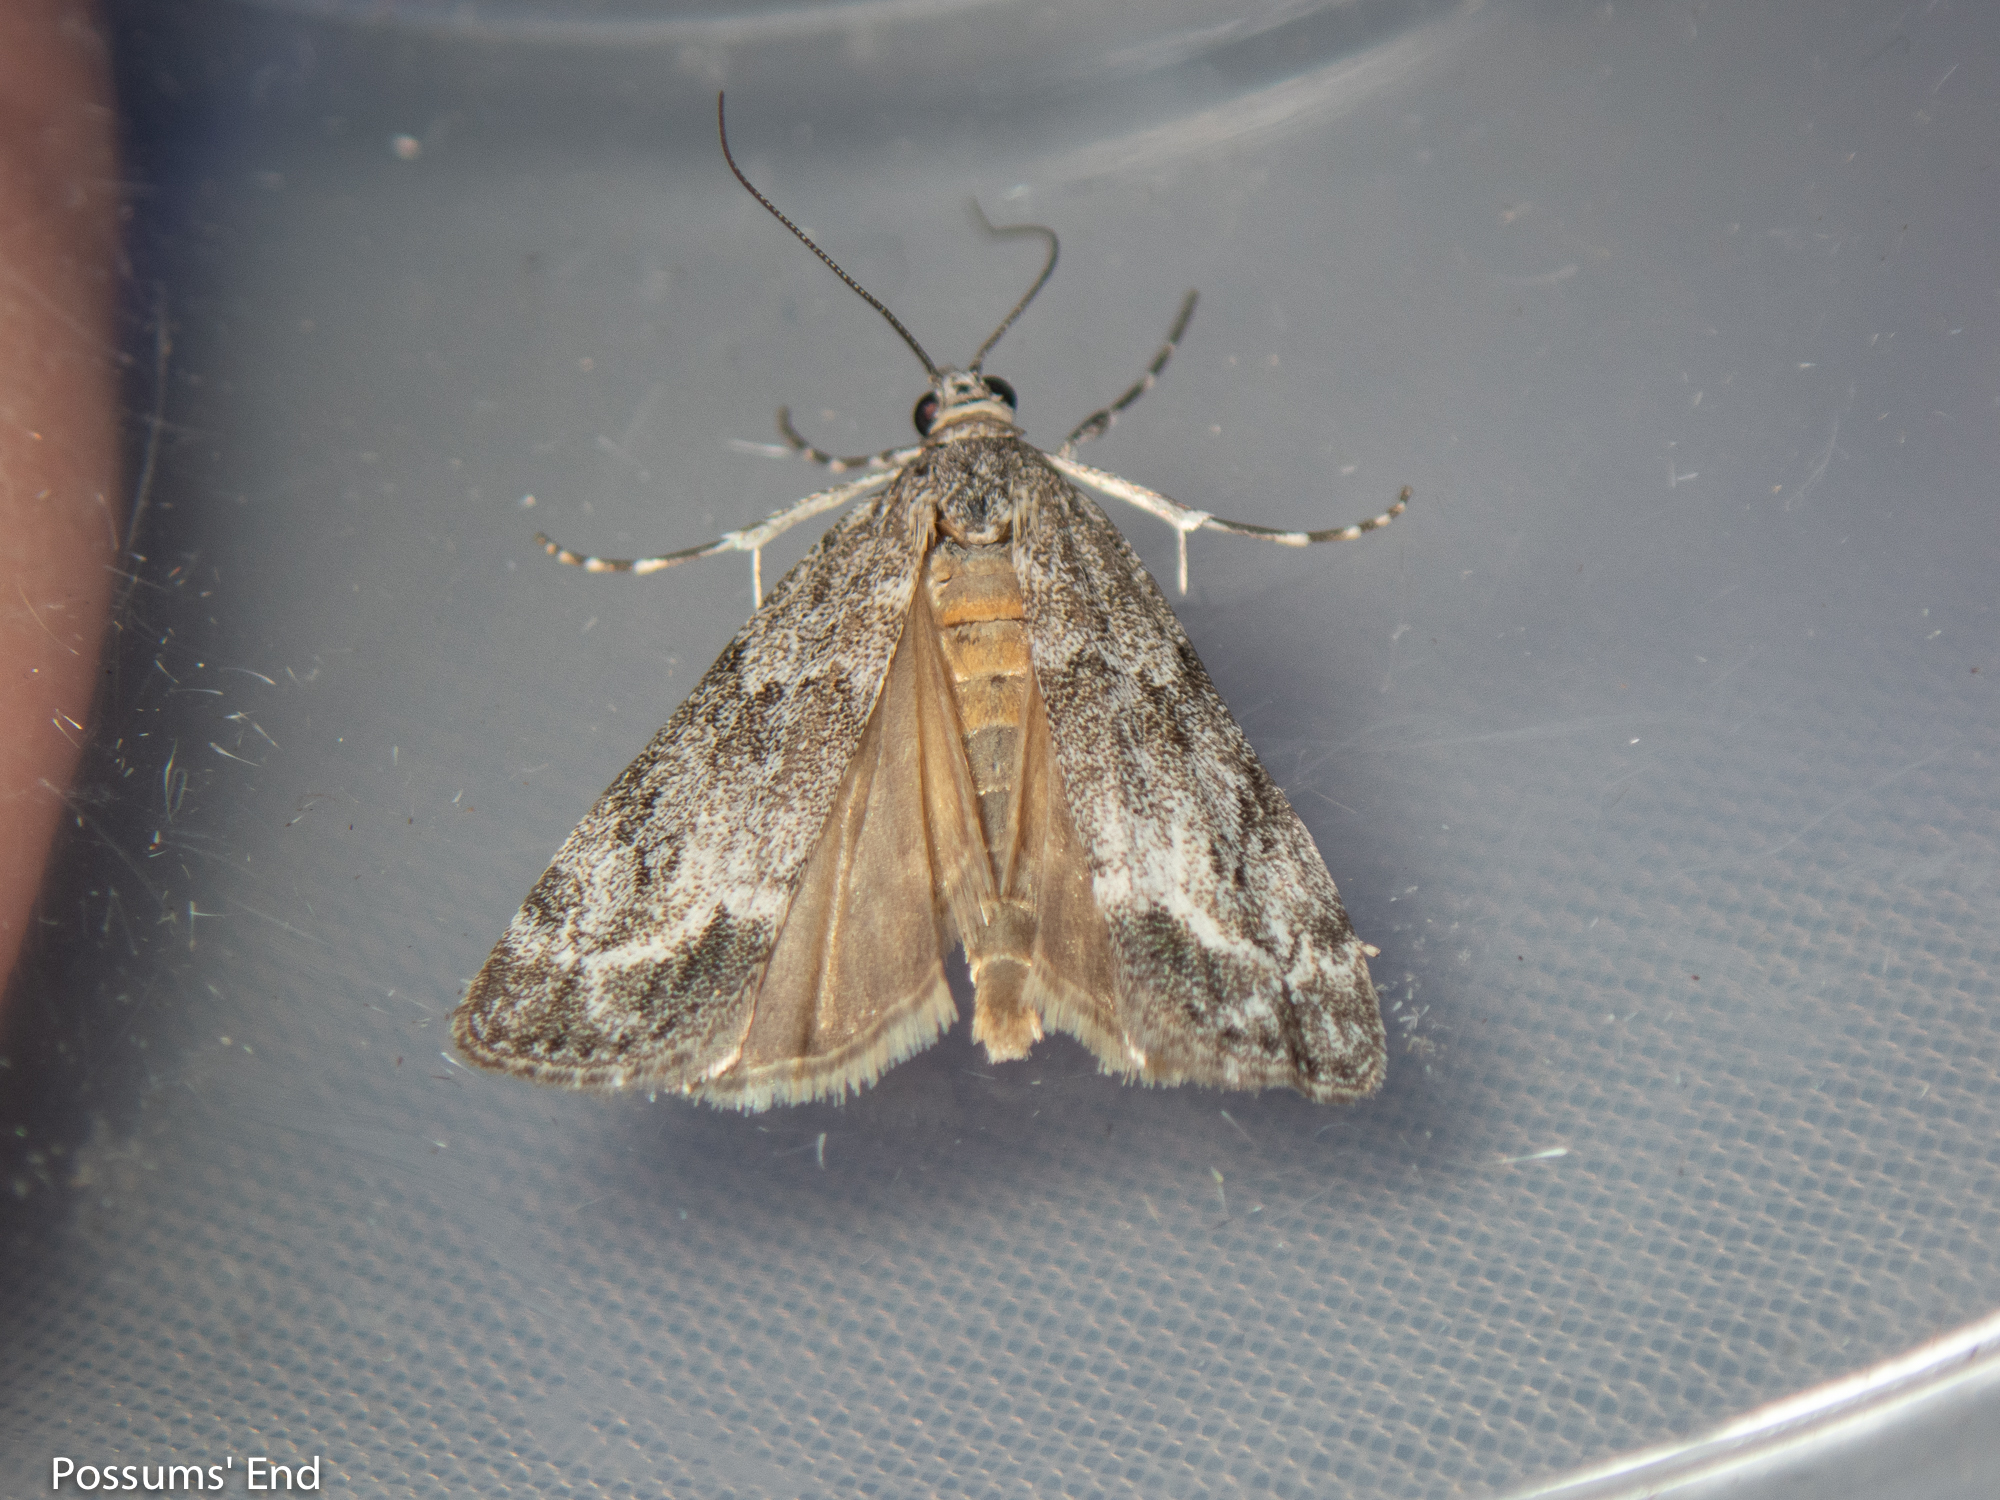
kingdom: Animalia
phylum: Arthropoda
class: Insecta
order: Lepidoptera
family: Crambidae
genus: Eudonia
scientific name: Eudonia rakaiensis
